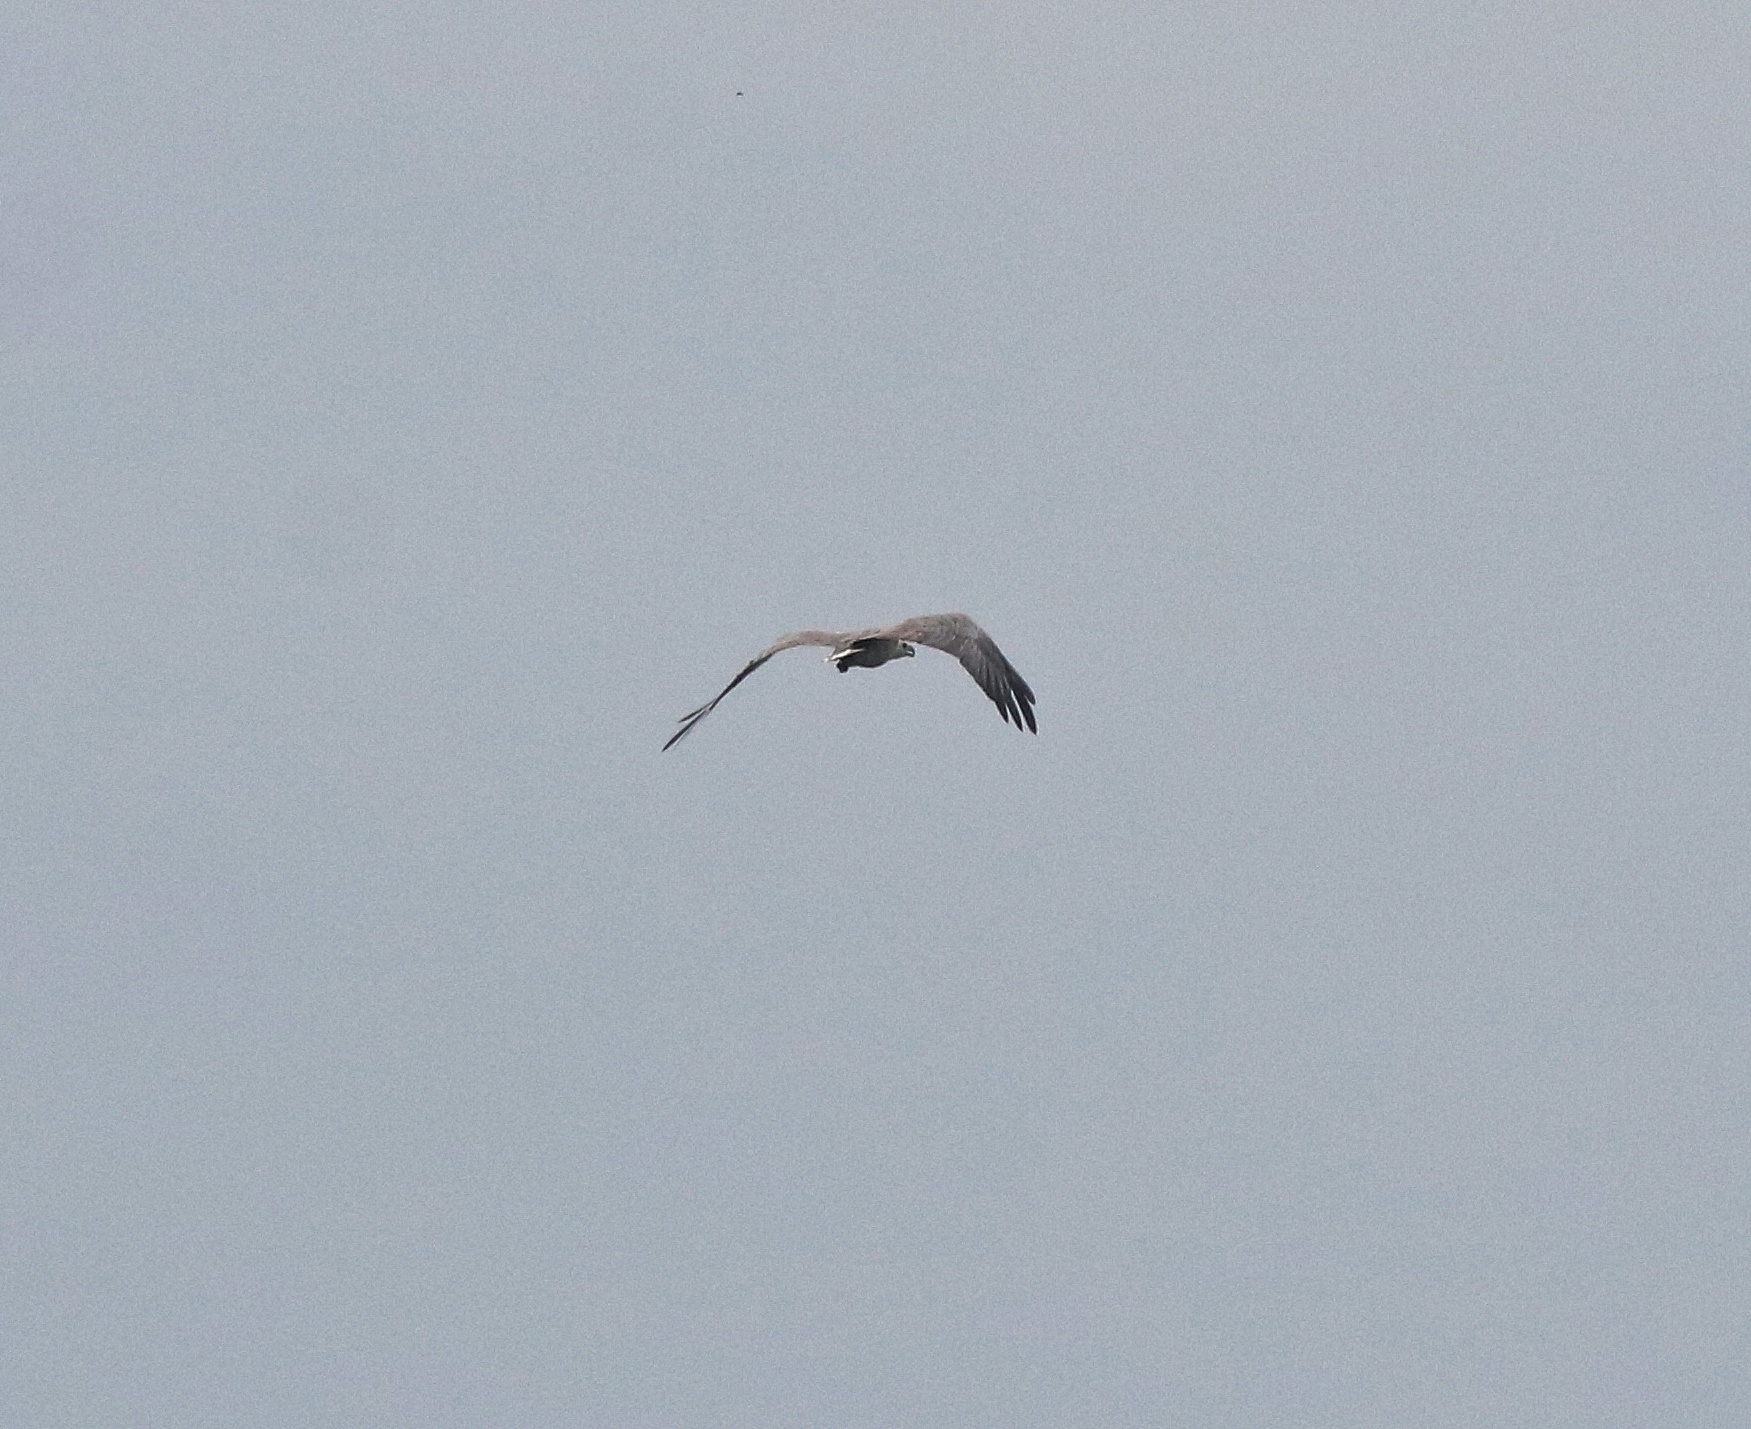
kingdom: Animalia
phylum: Chordata
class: Aves
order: Accipitriformes
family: Accipitridae
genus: Haliaeetus
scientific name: Haliaeetus leucogaster
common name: White-bellied sea eagle
